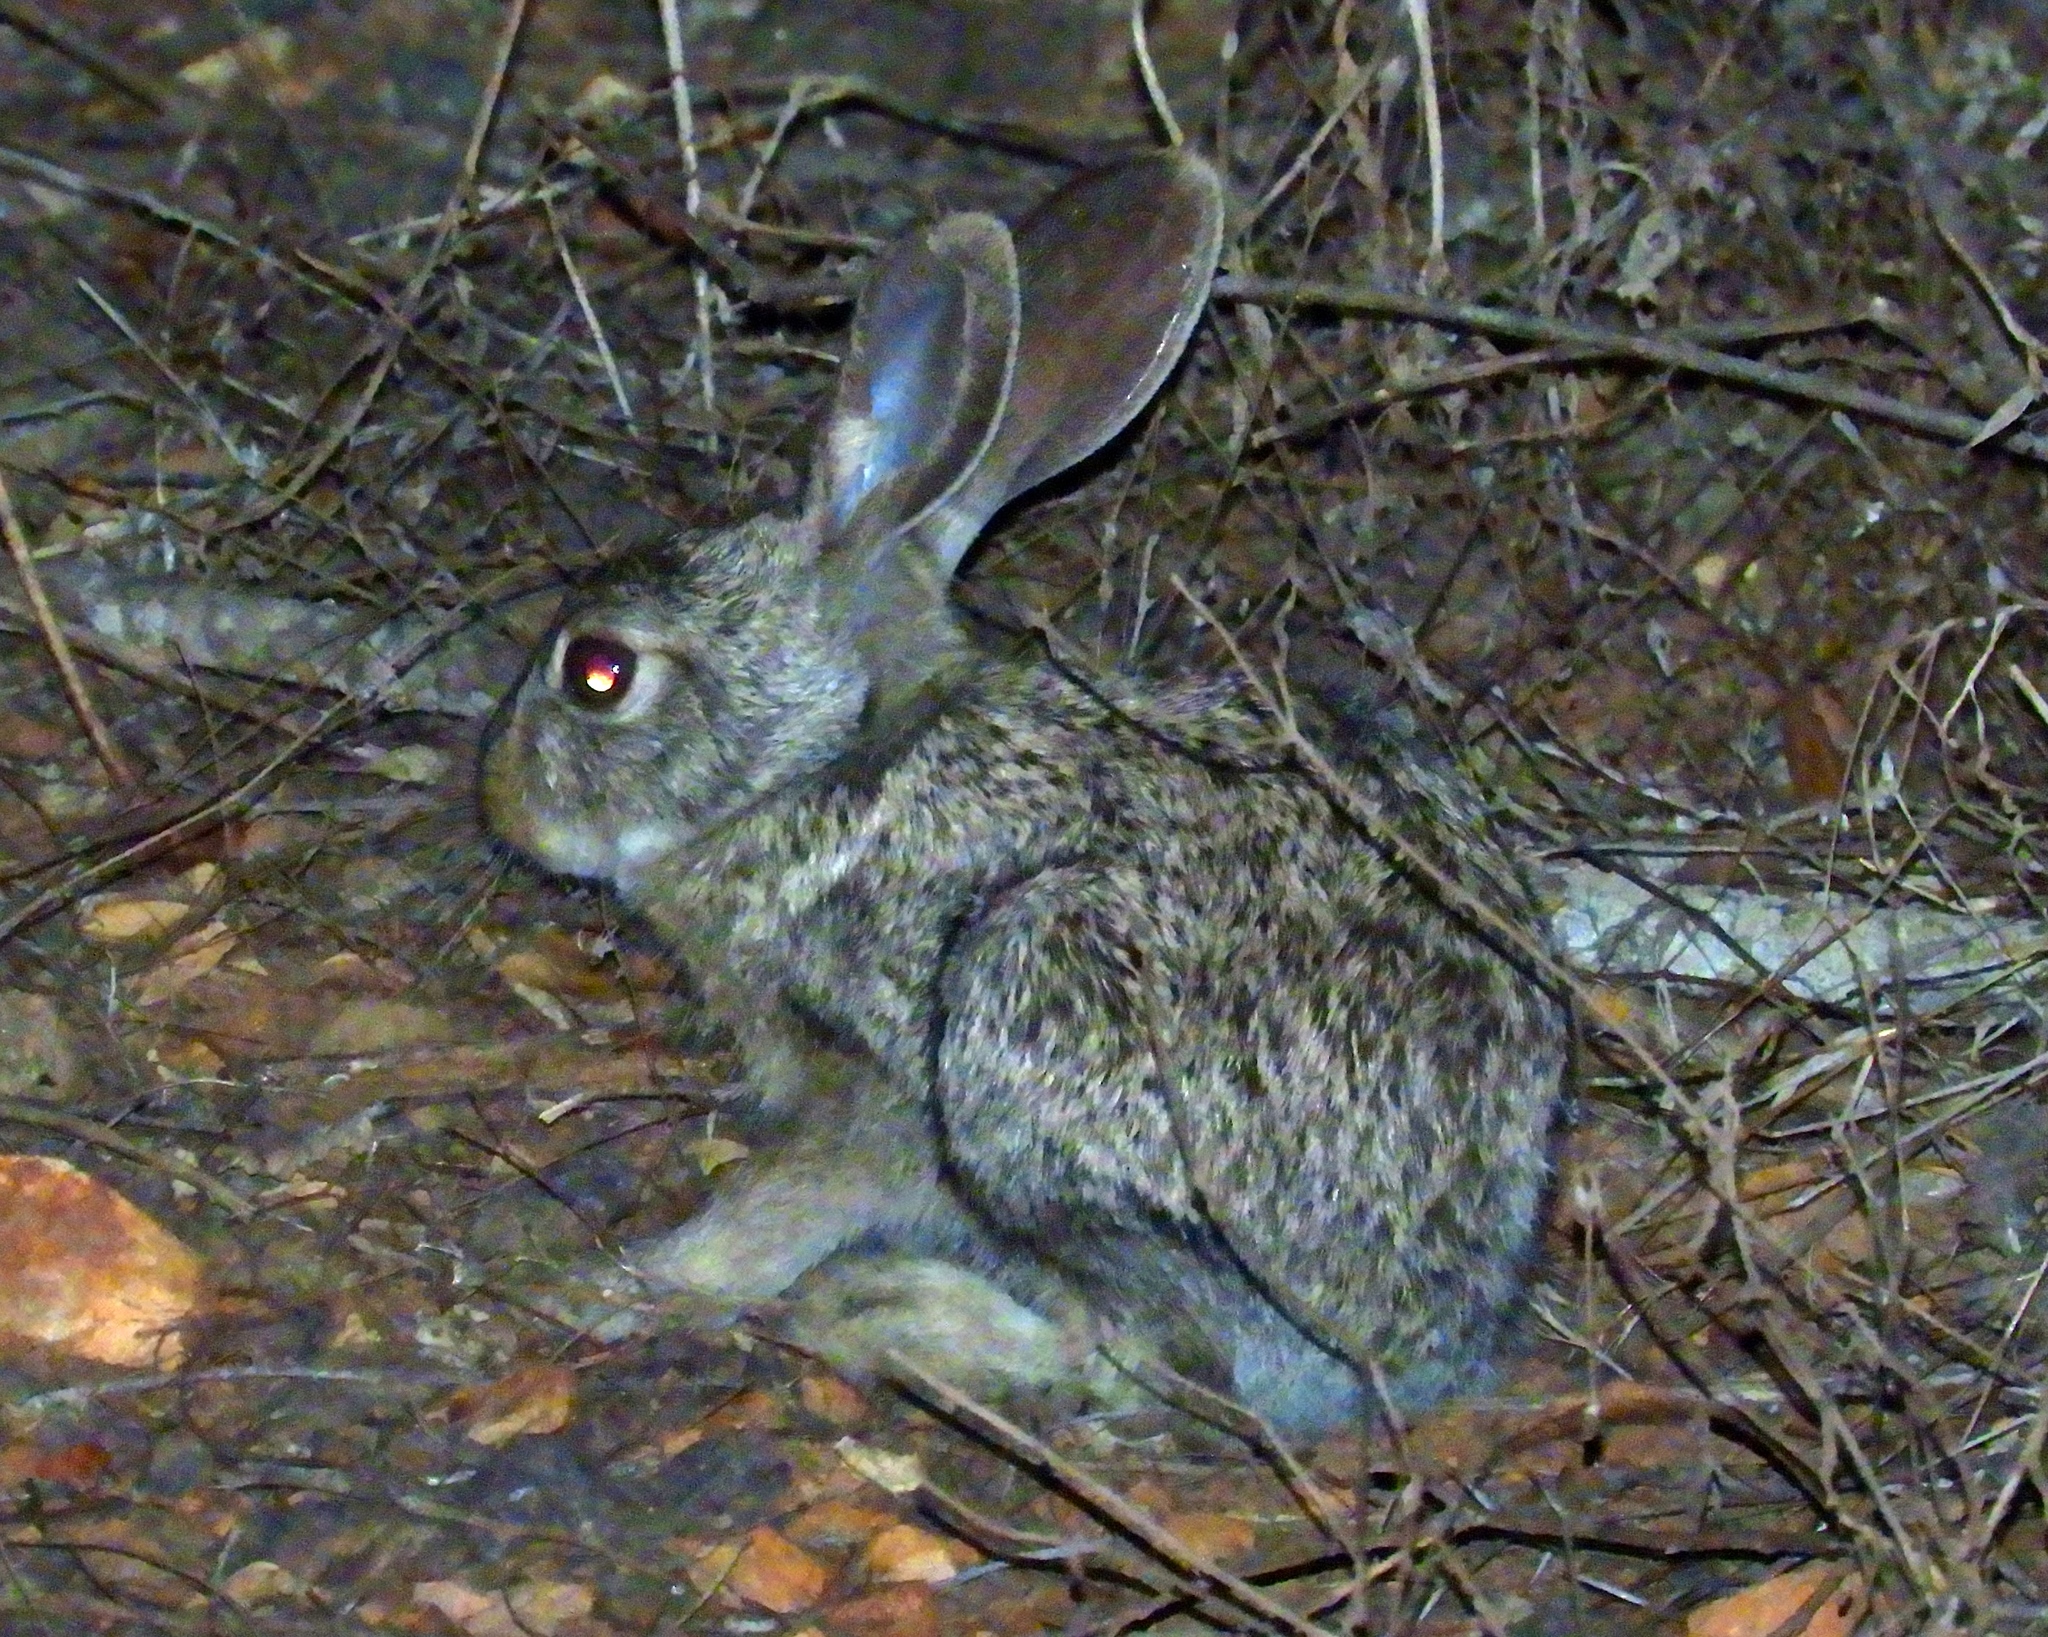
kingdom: Animalia
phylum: Chordata
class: Mammalia
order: Lagomorpha
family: Leporidae
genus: Lepus
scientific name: Lepus alleni
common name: Antelope jackrabbit
